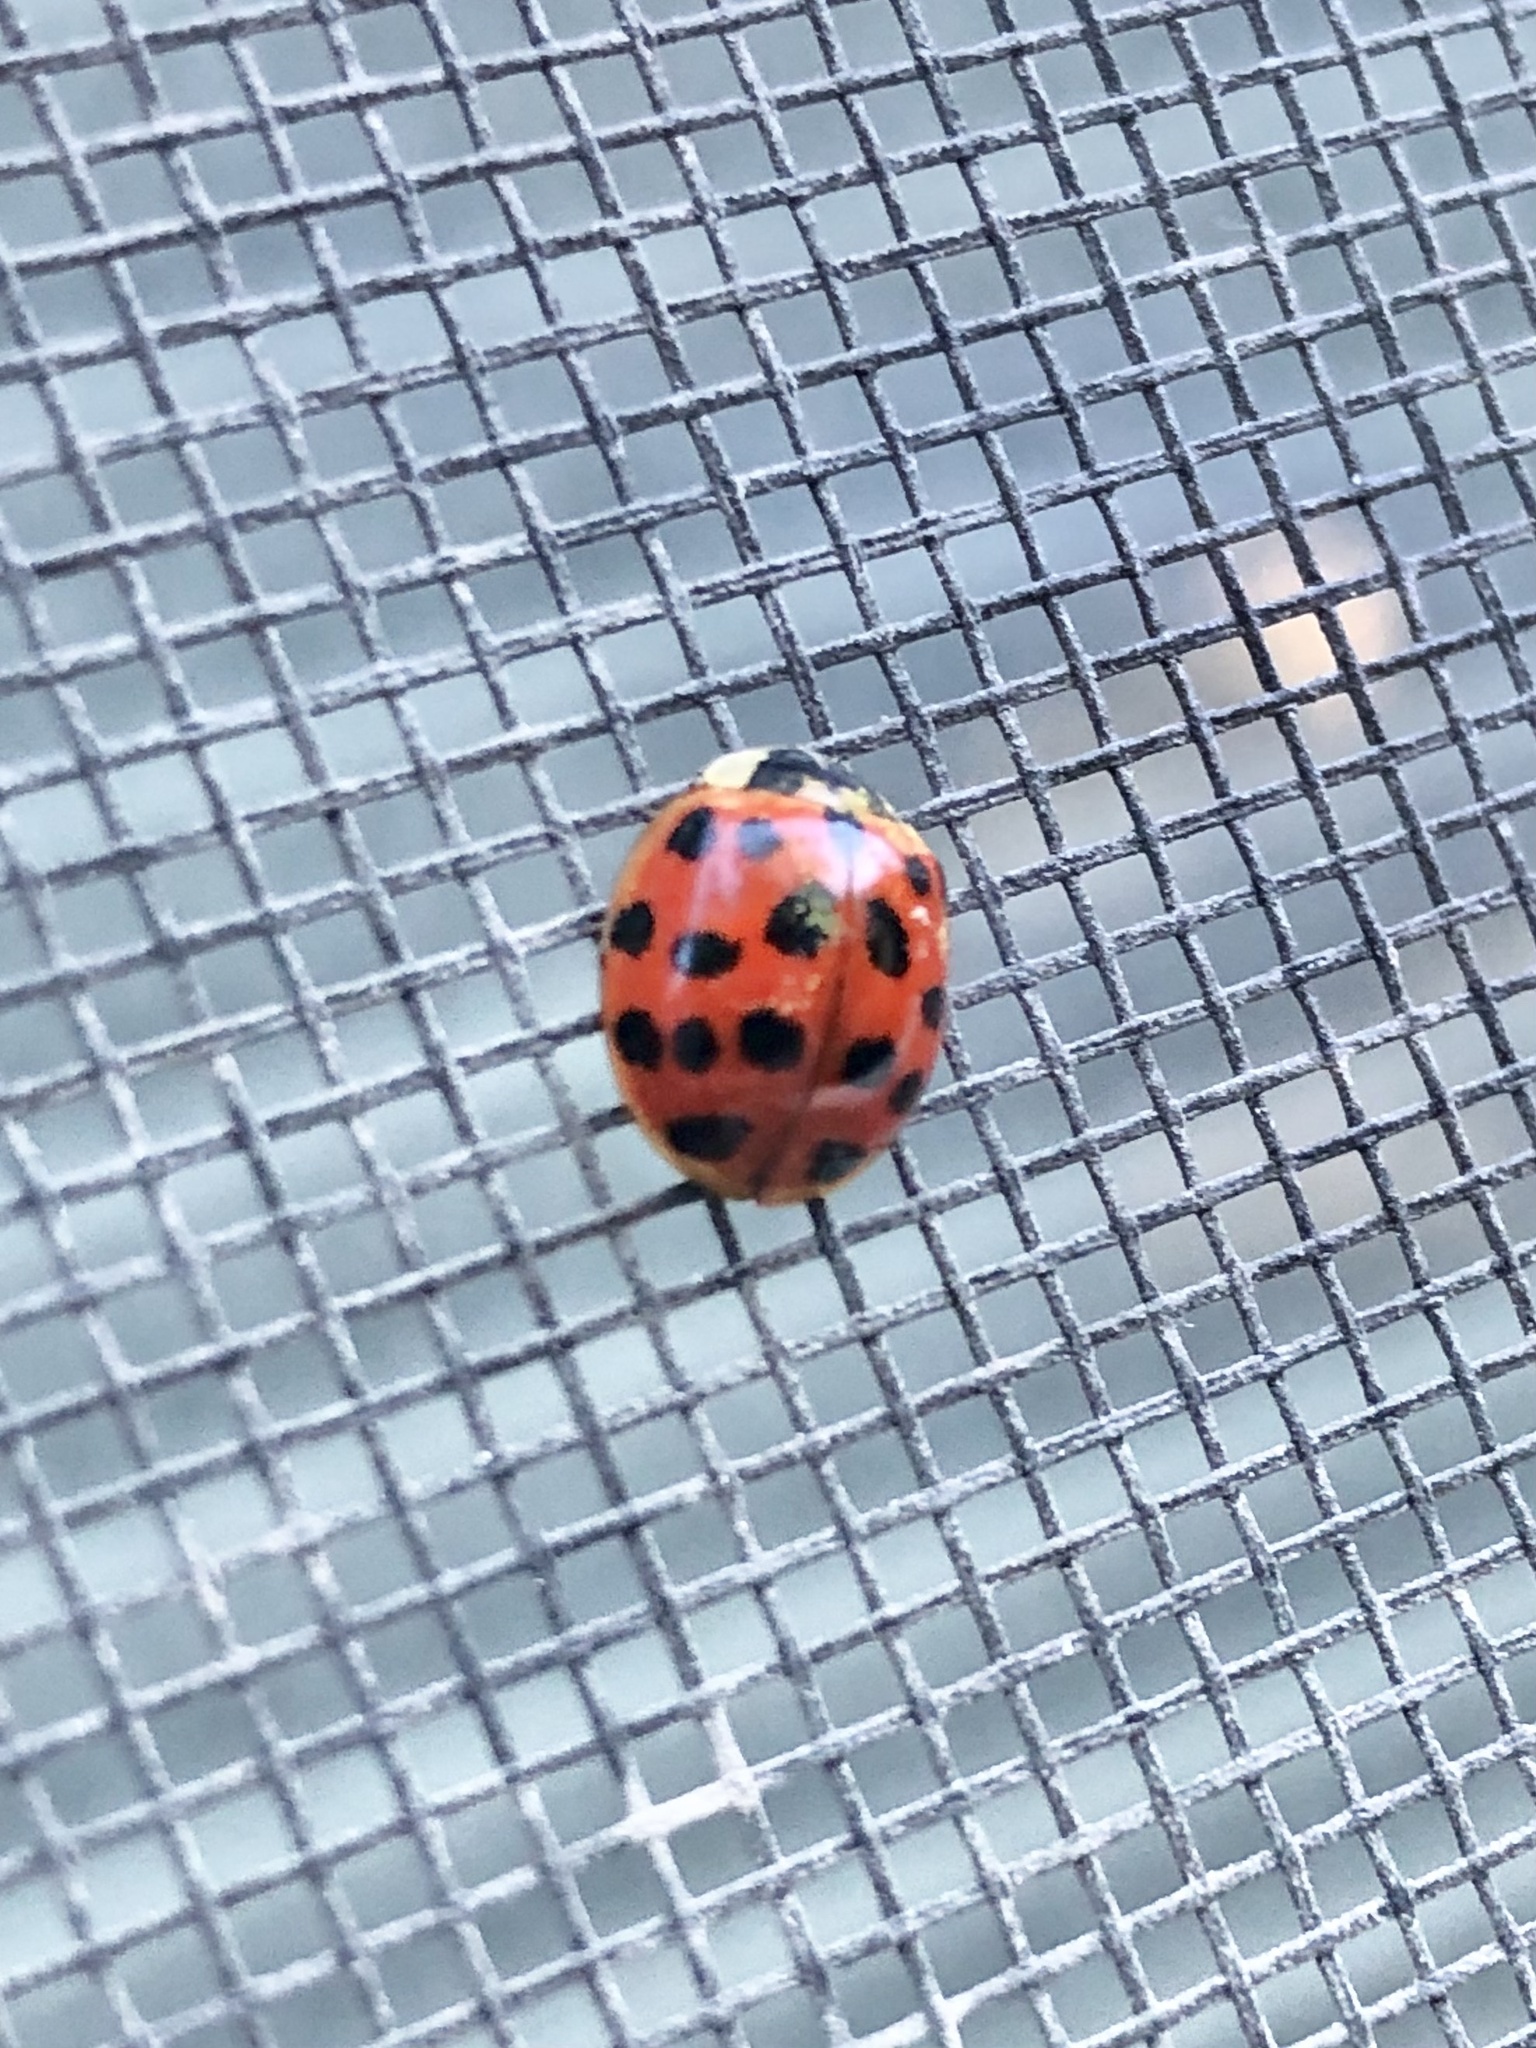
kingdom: Animalia
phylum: Arthropoda
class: Insecta
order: Coleoptera
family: Coccinellidae
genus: Harmonia
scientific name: Harmonia axyridis
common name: Harlequin ladybird
